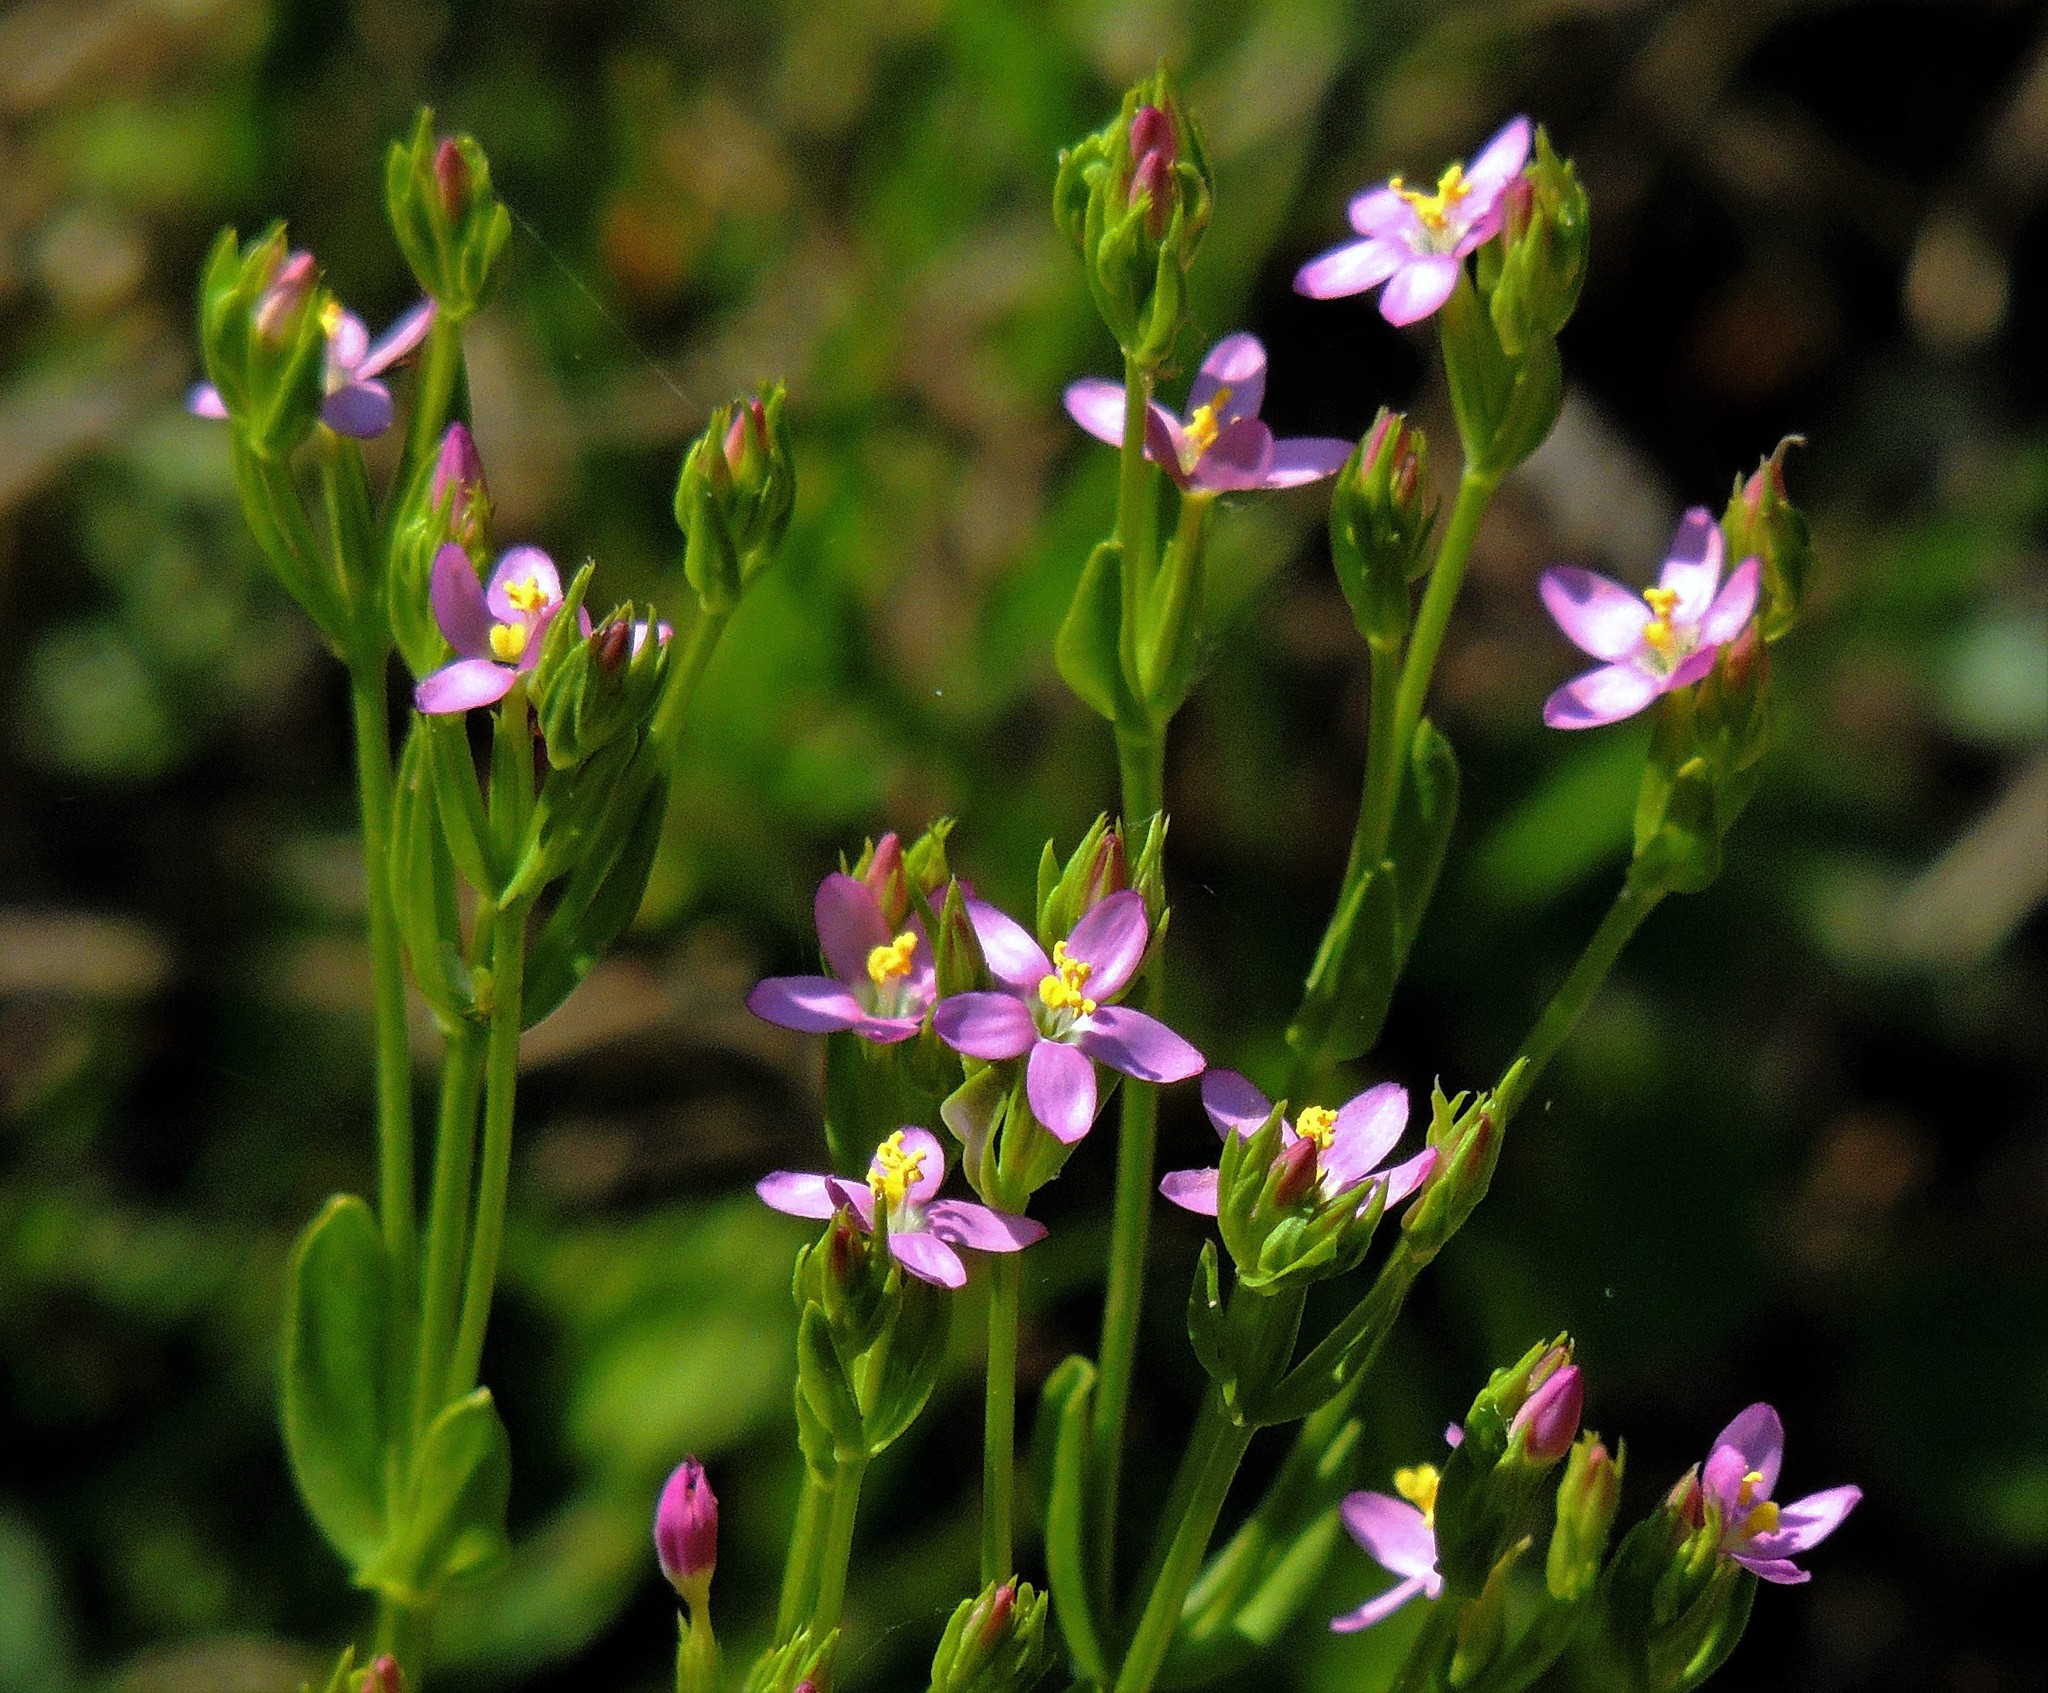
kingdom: Plantae
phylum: Tracheophyta
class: Magnoliopsida
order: Gentianales
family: Gentianaceae
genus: Centaurium
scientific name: Centaurium pulchellum
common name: Lesser centaury
